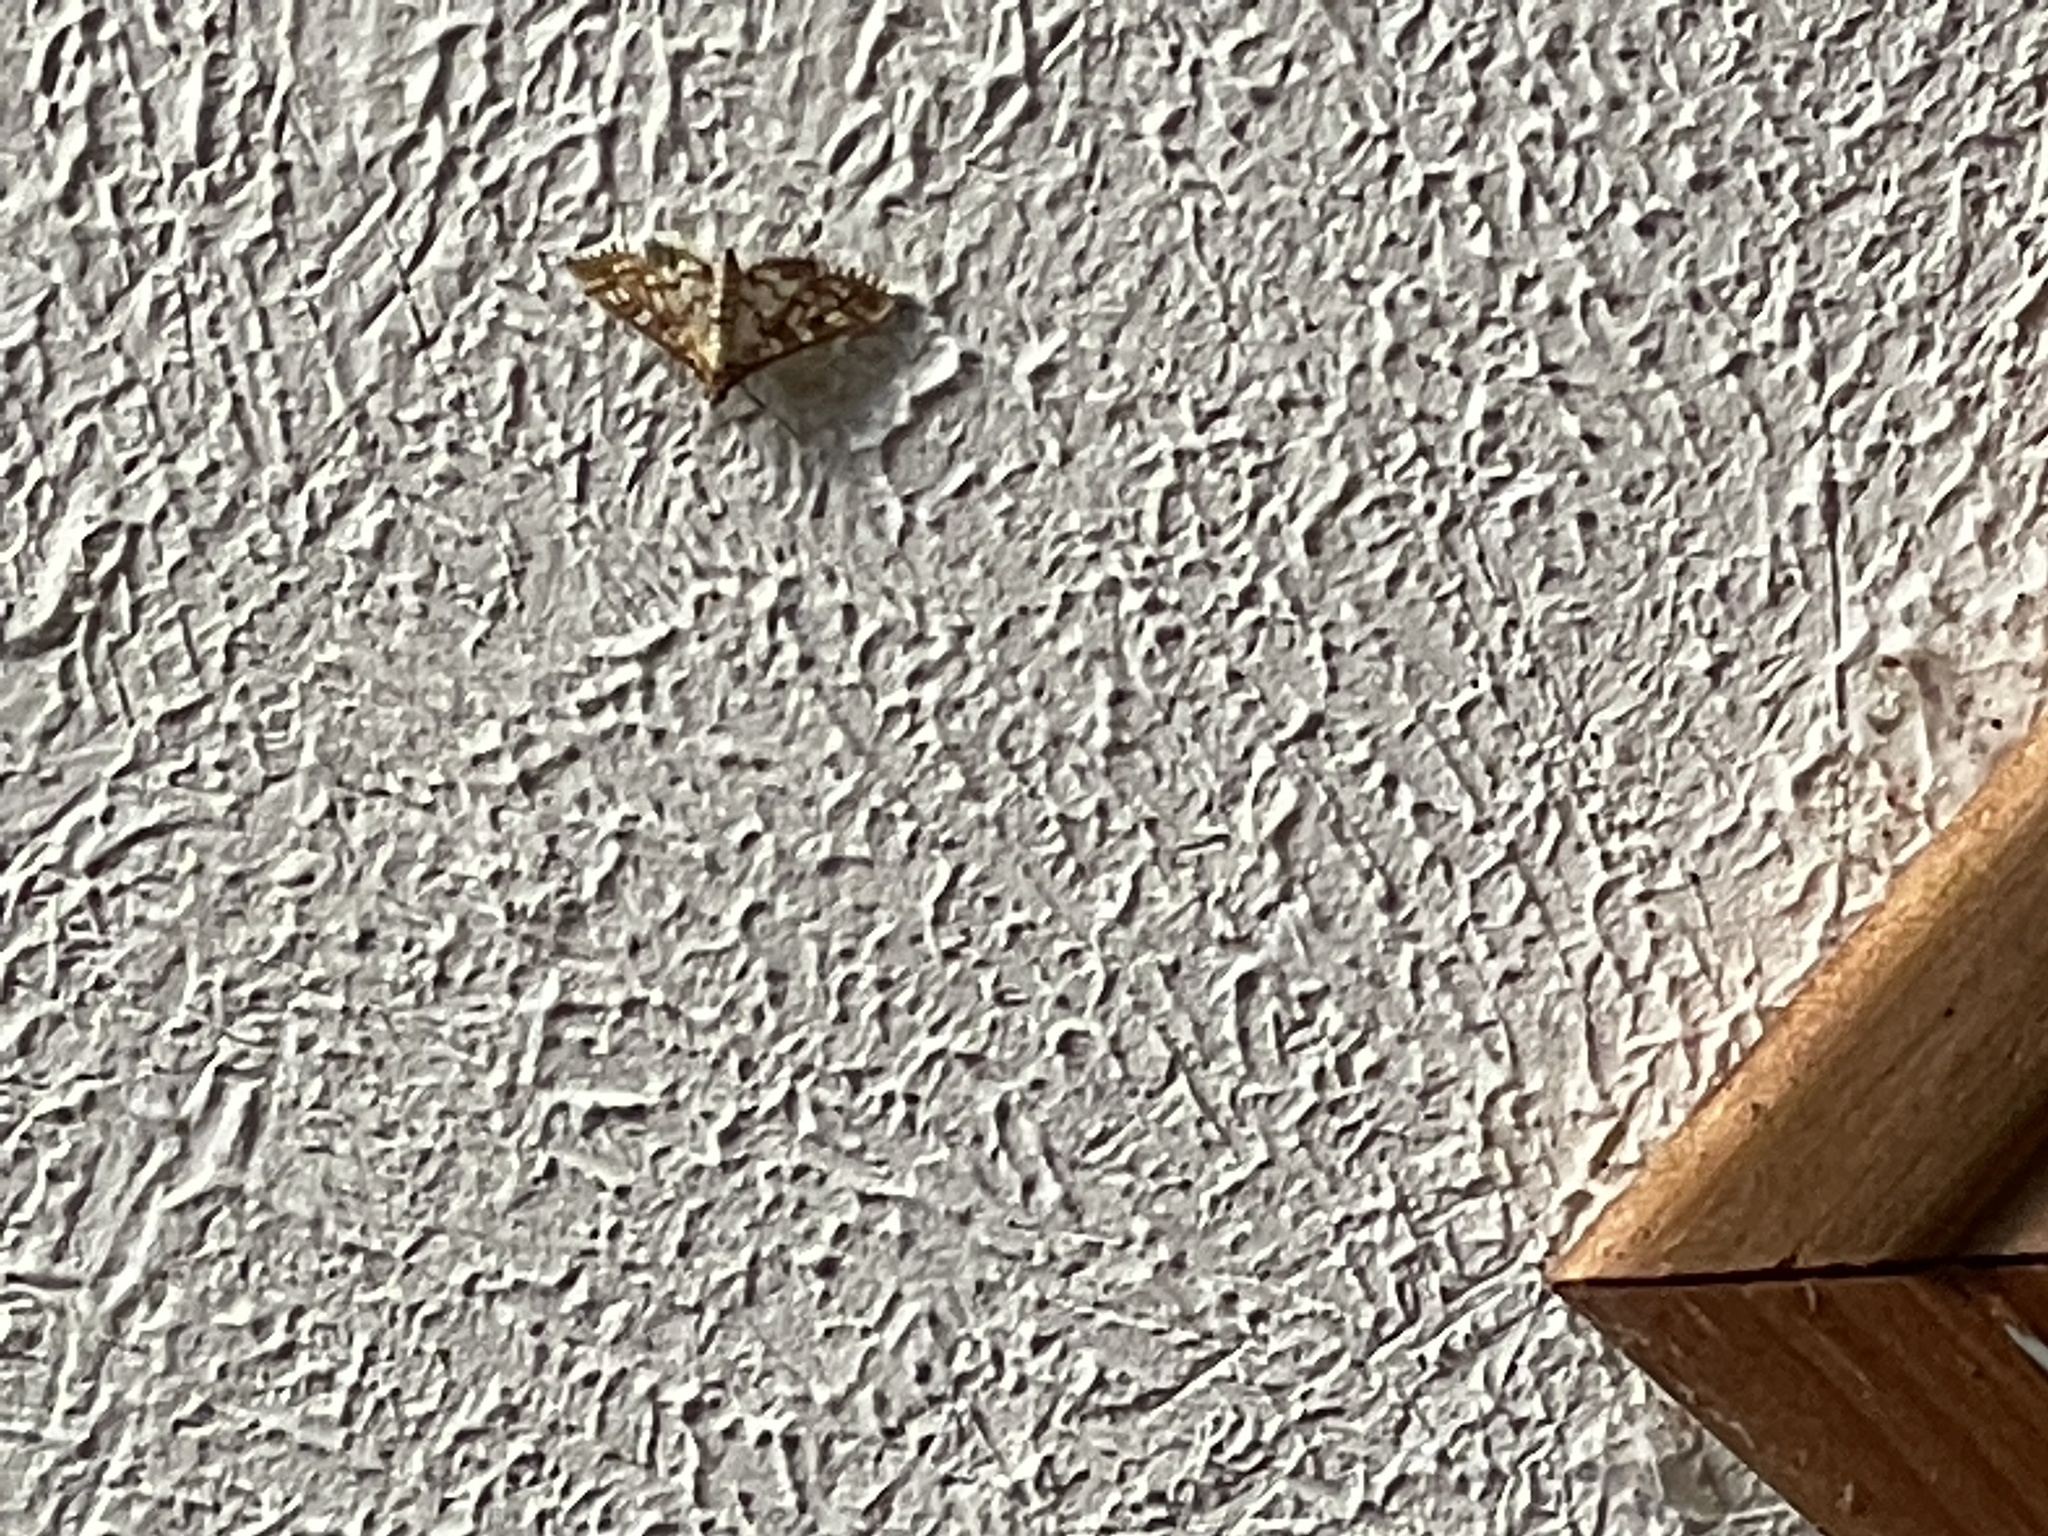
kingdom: Animalia
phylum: Arthropoda
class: Insecta
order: Lepidoptera
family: Crambidae
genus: Epipagis
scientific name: Epipagis fenestralis
